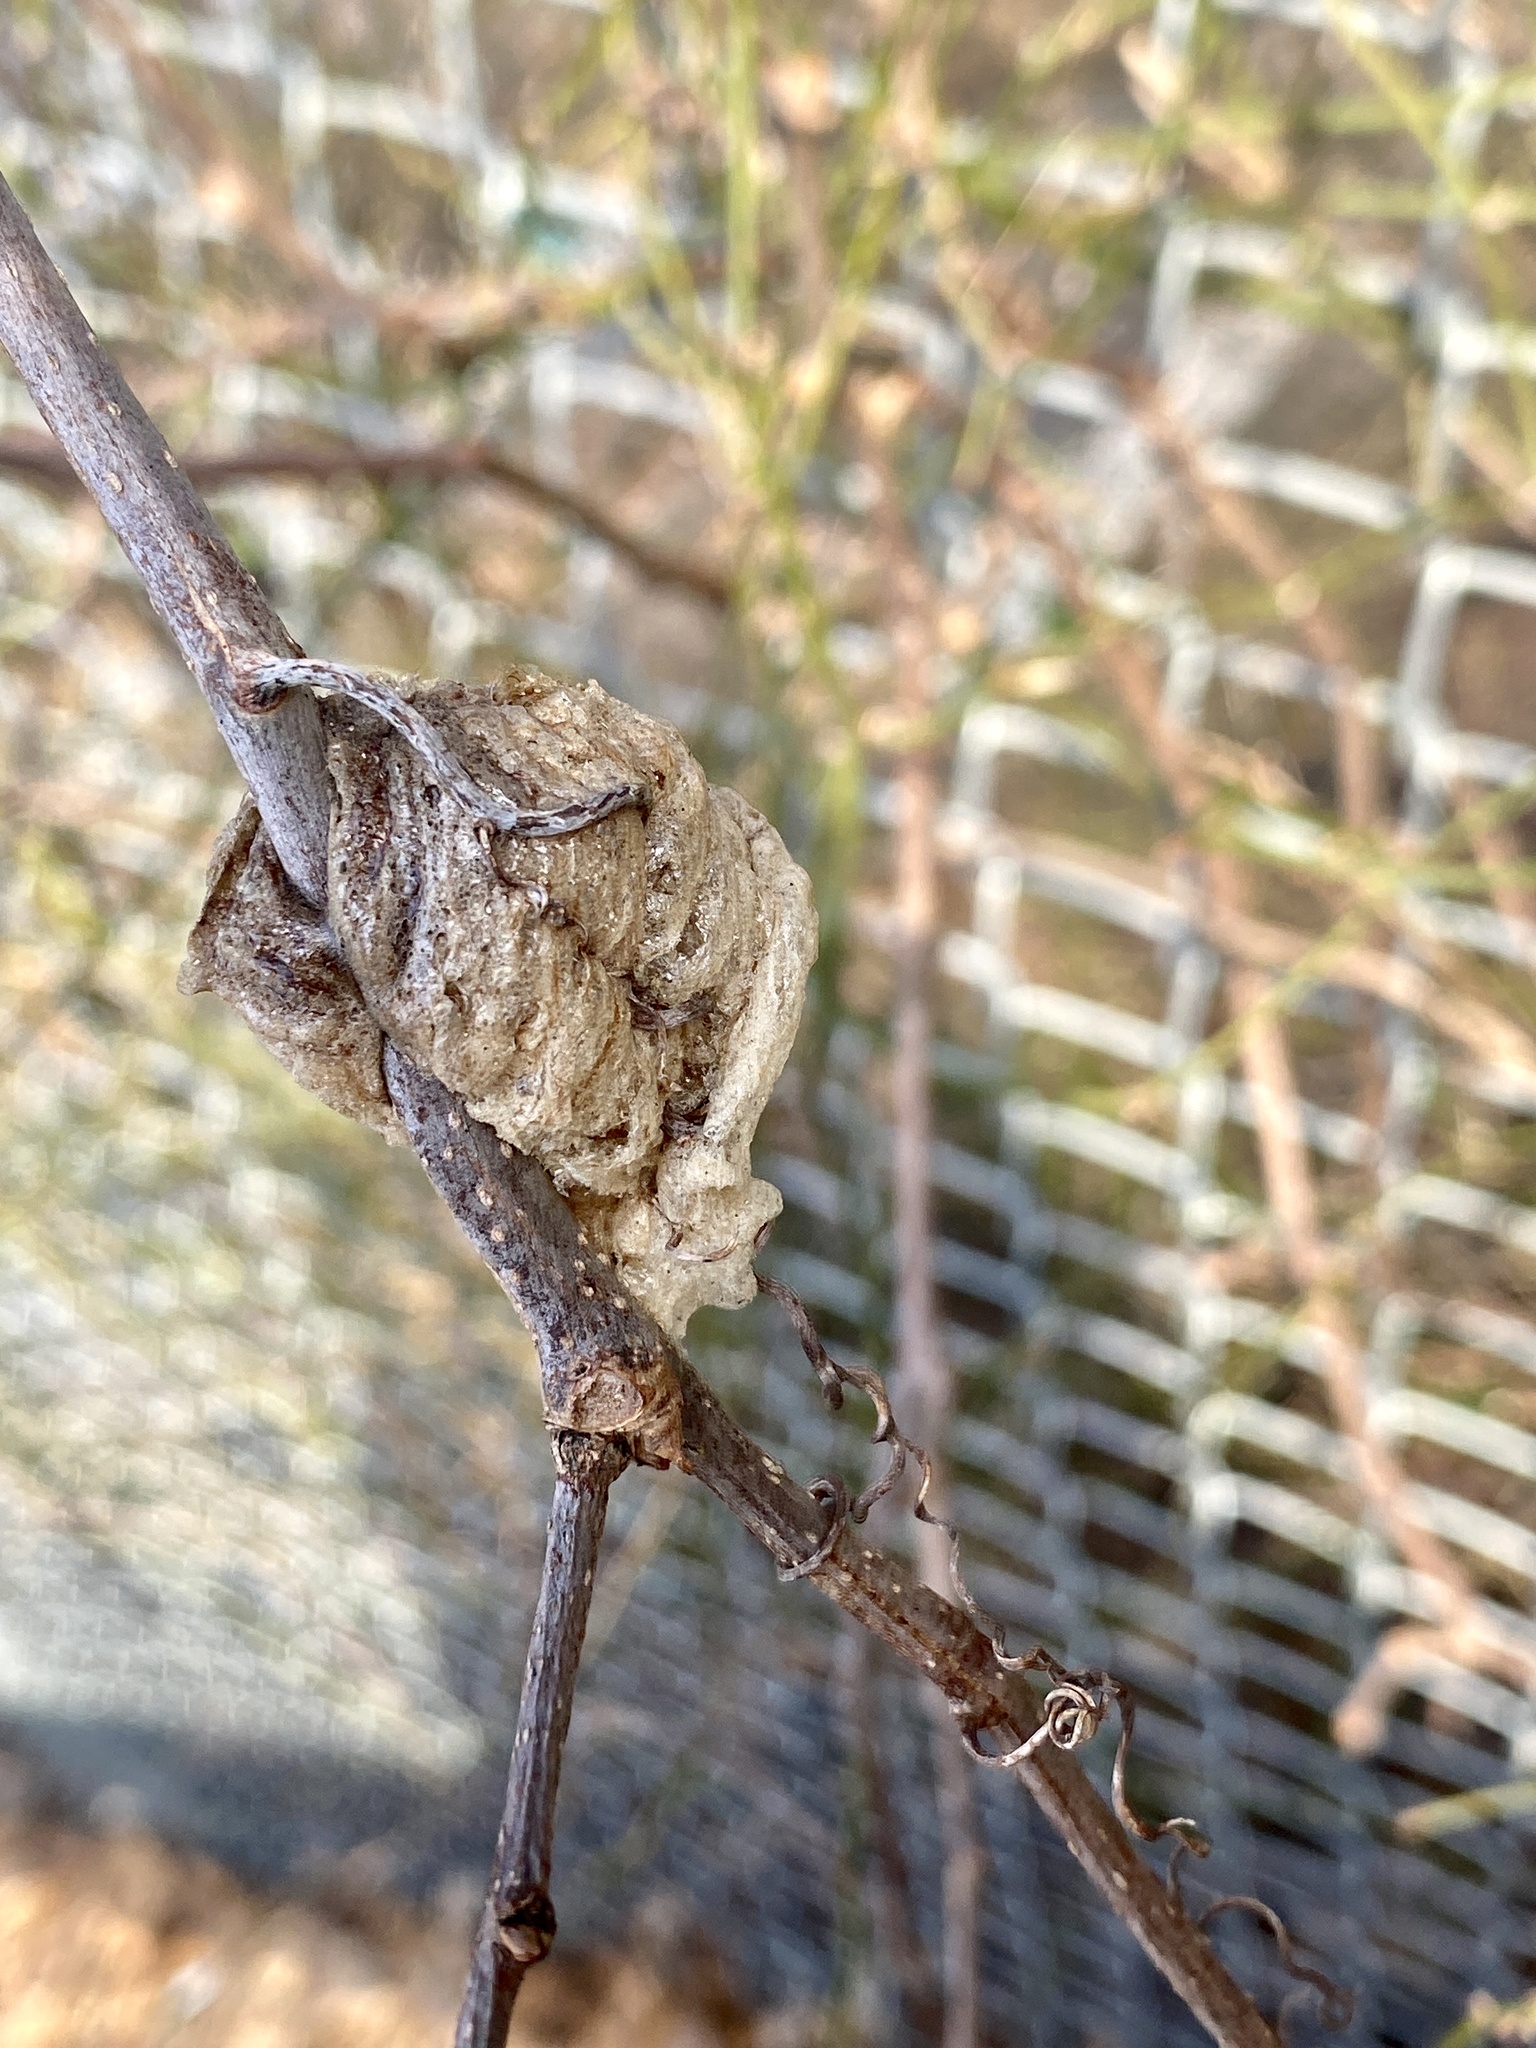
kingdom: Animalia
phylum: Arthropoda
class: Insecta
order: Mantodea
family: Mantidae
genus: Tenodera
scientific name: Tenodera sinensis
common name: Chinese mantis
